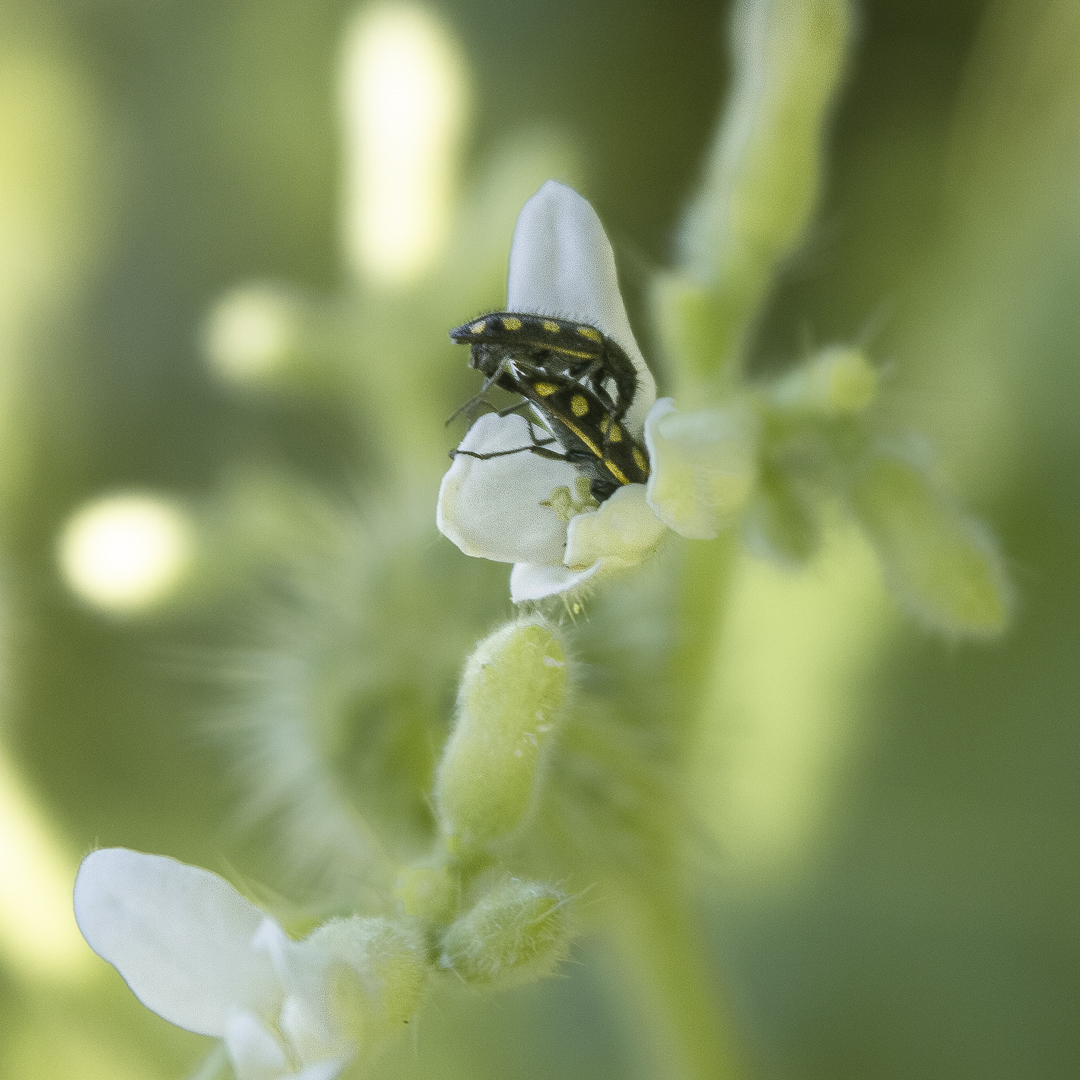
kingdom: Animalia
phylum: Arthropoda
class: Insecta
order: Coleoptera
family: Melyridae
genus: Astylus
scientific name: Astylus
